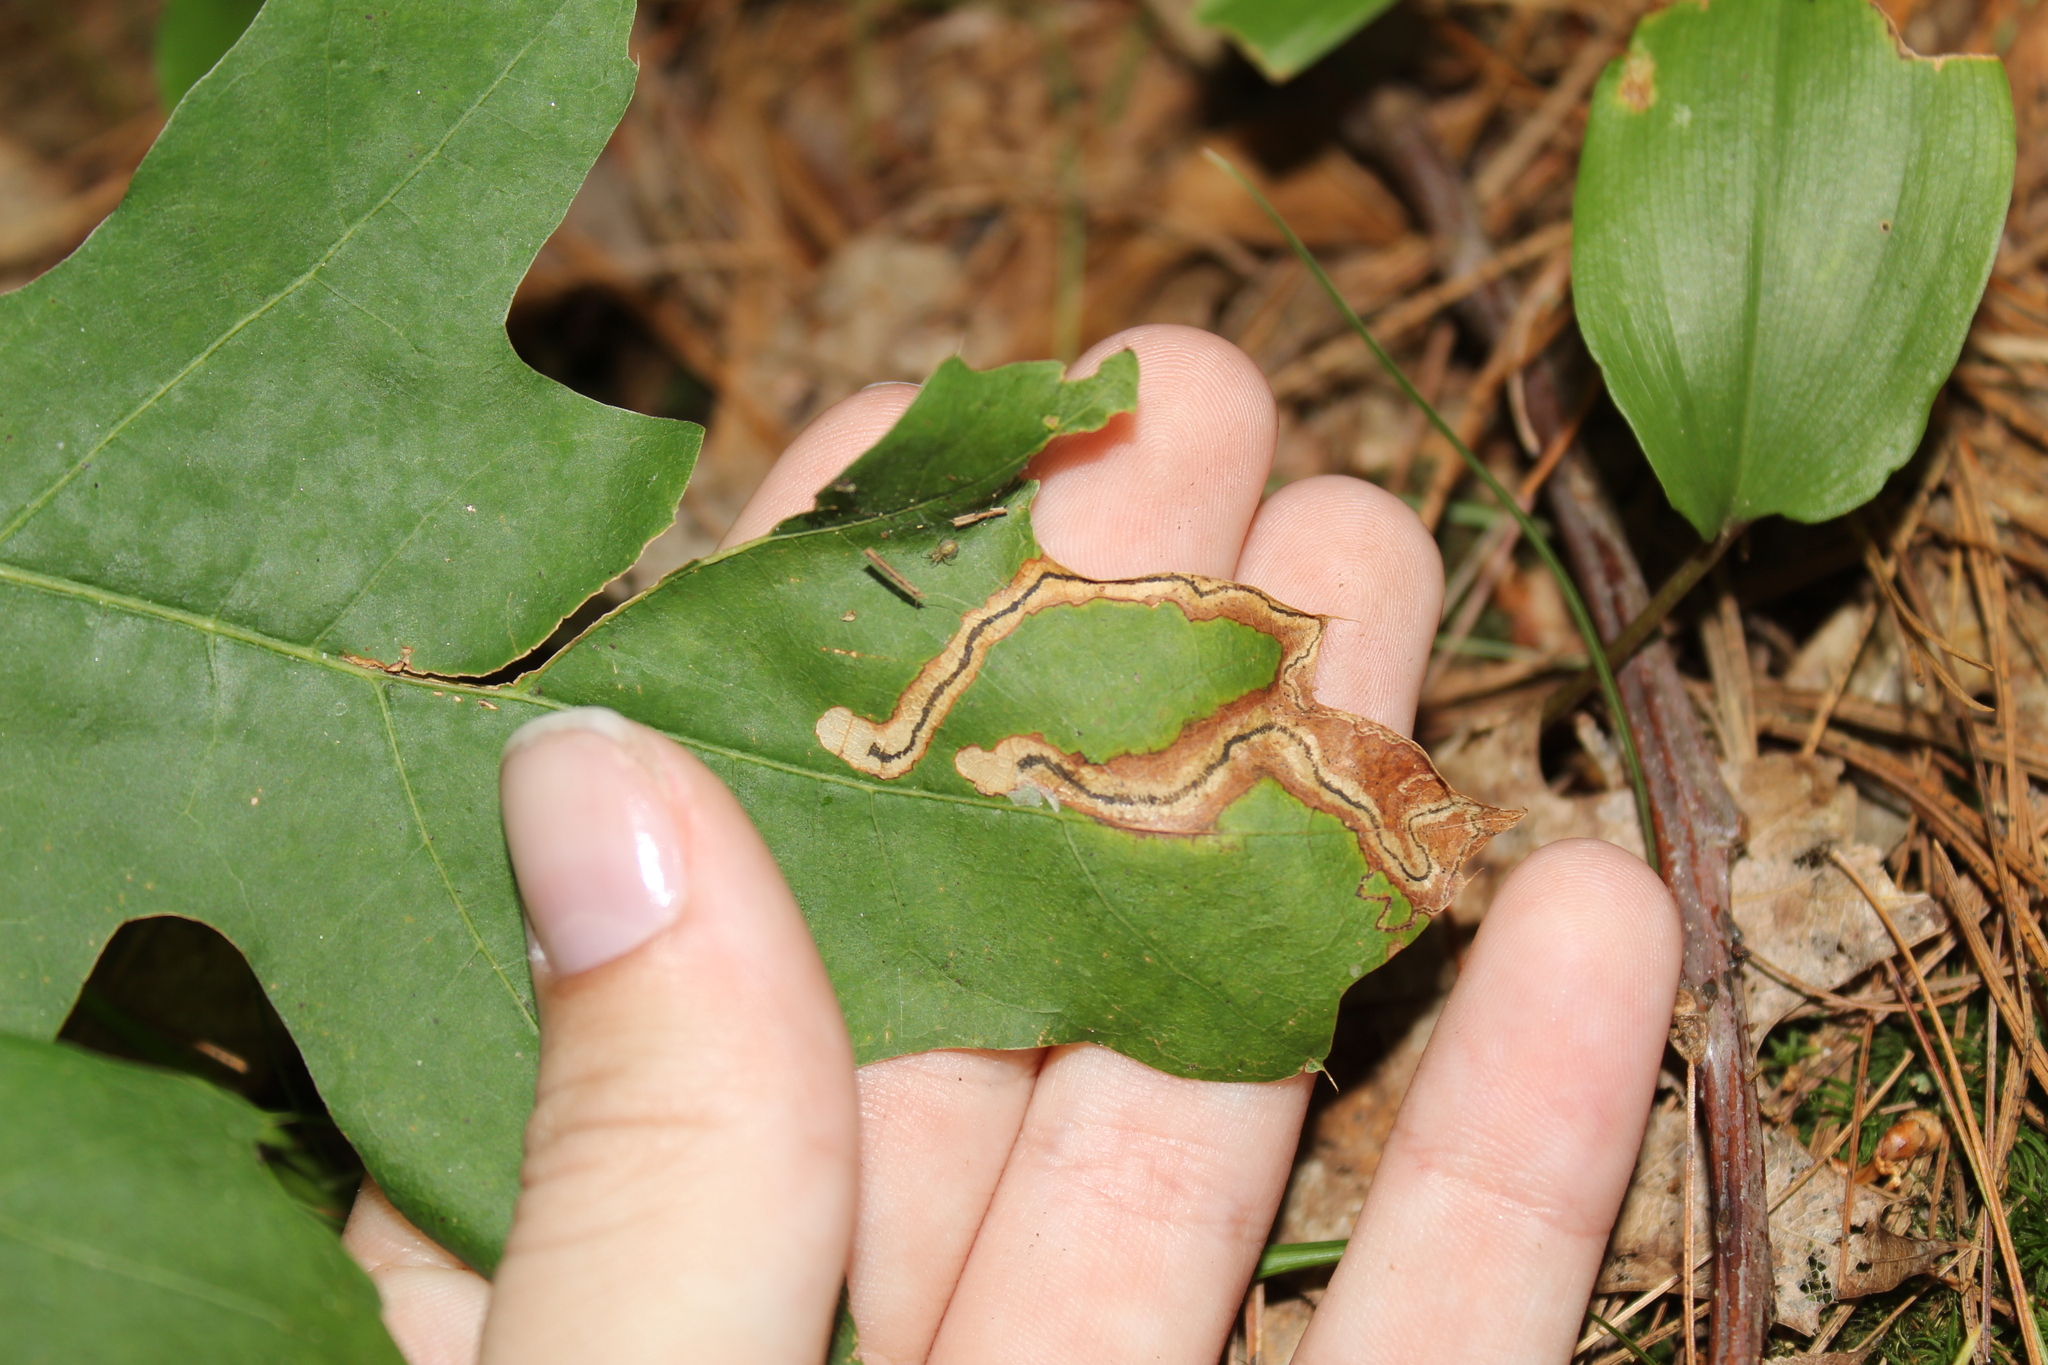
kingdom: Animalia
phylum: Arthropoda
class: Insecta
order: Lepidoptera
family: Nepticulidae
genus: Stigmella
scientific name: Stigmella quercipulchella
